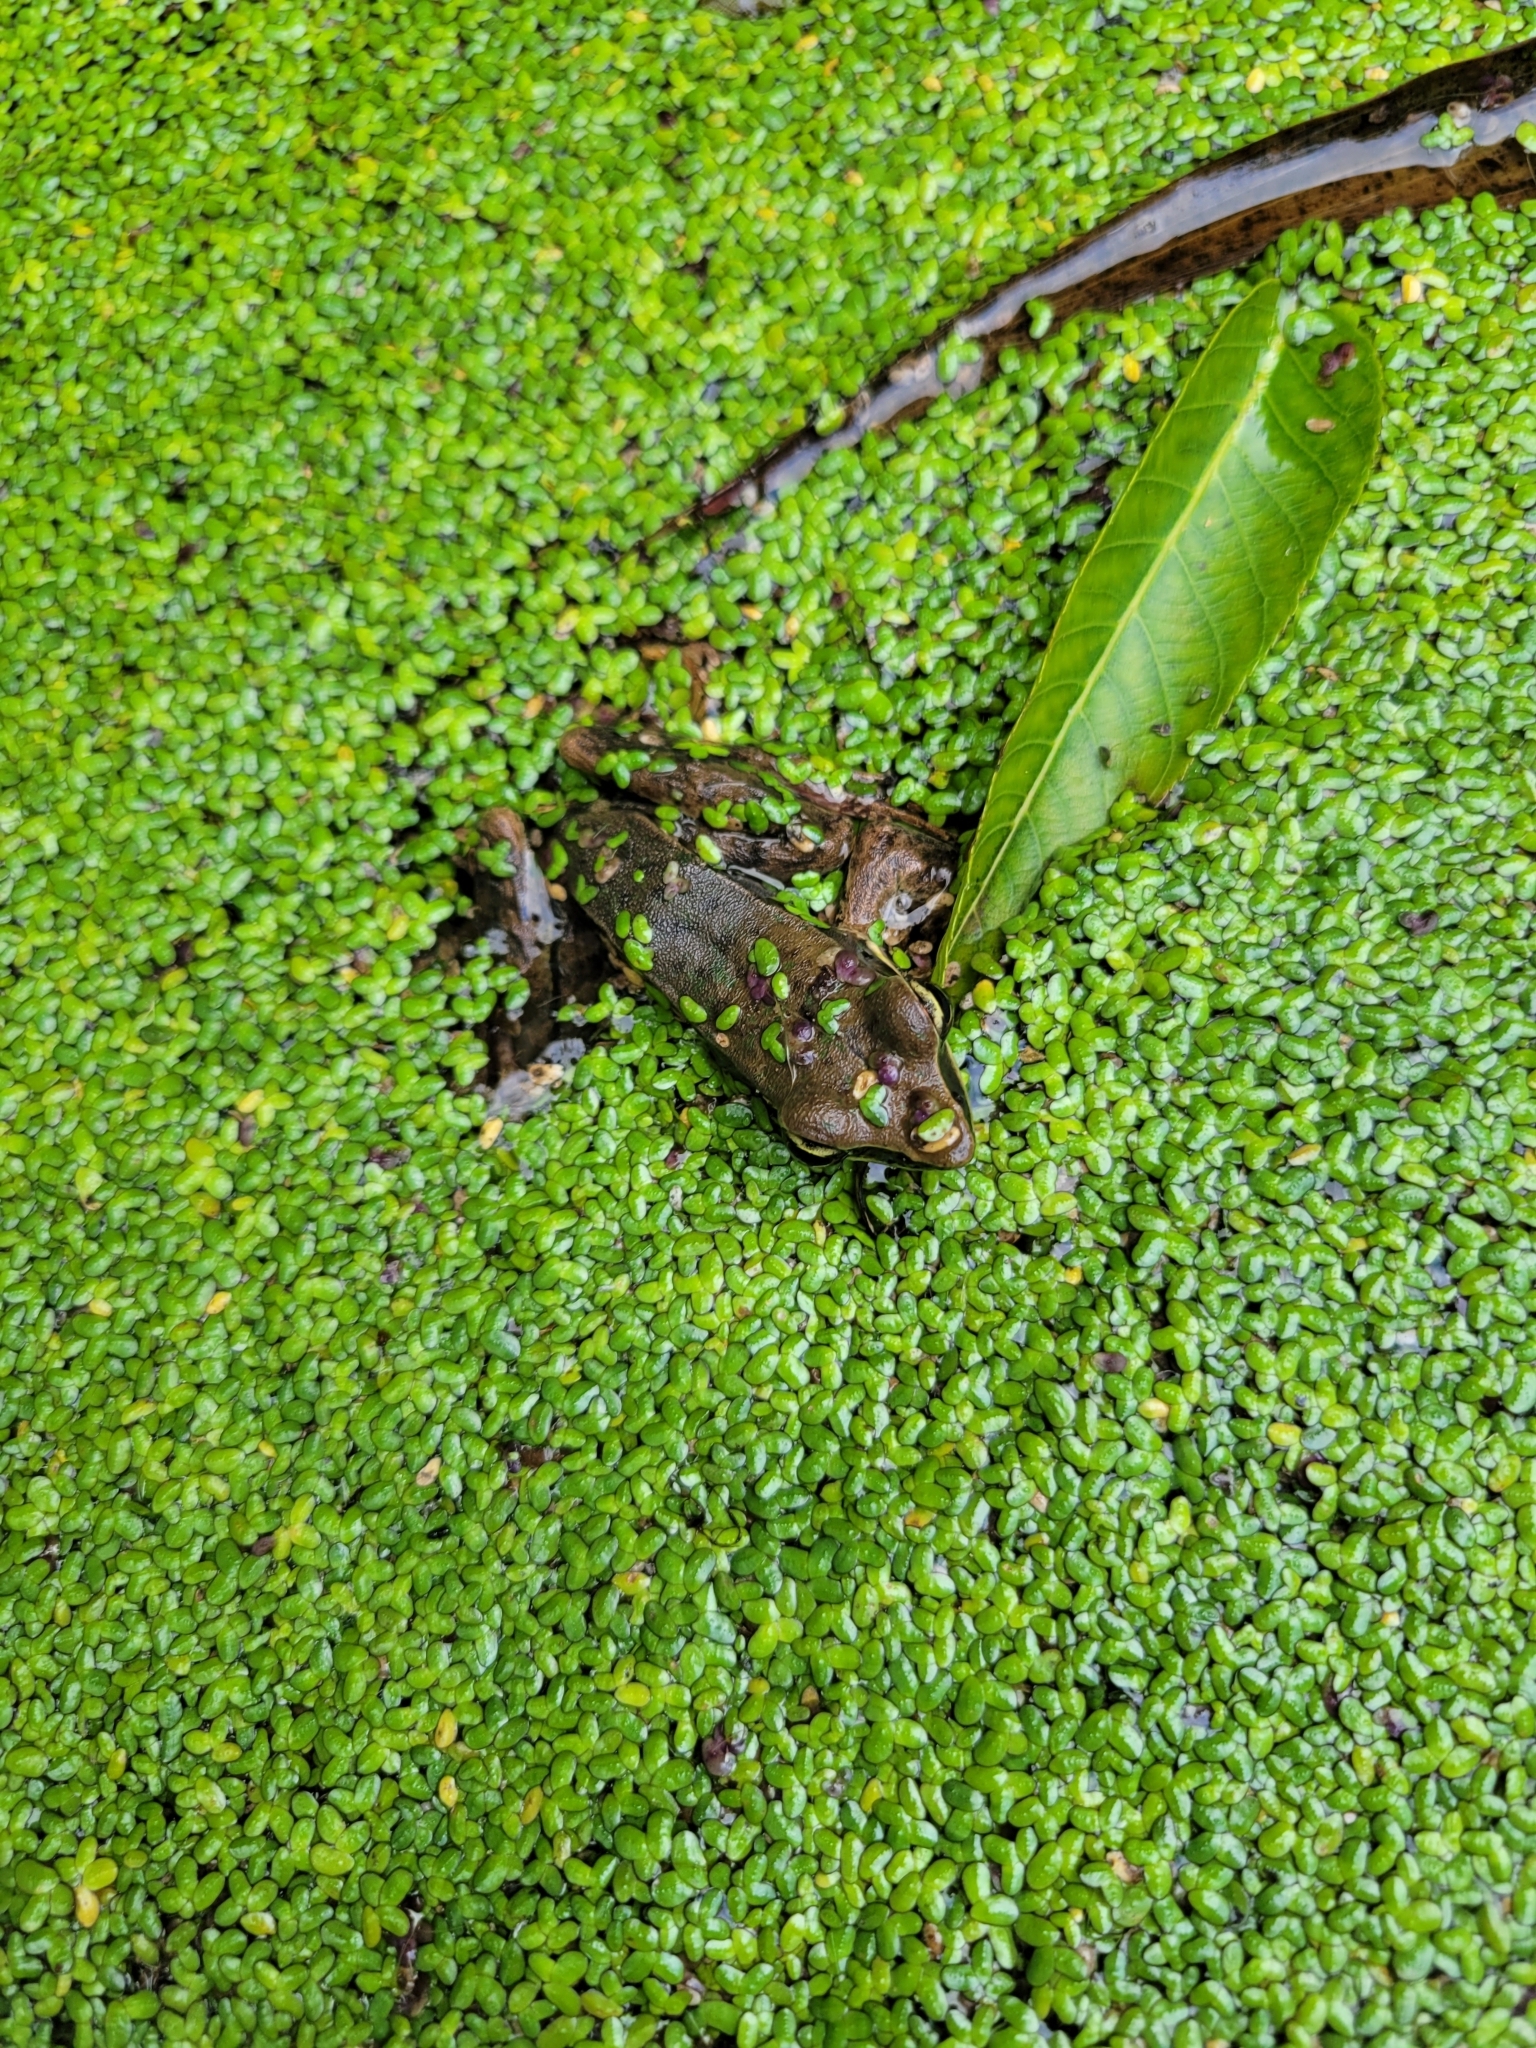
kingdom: Animalia
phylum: Chordata
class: Amphibia
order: Anura
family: Ranidae
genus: Lithobates
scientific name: Lithobates warszewitschii
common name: Warszewitsch's frog
